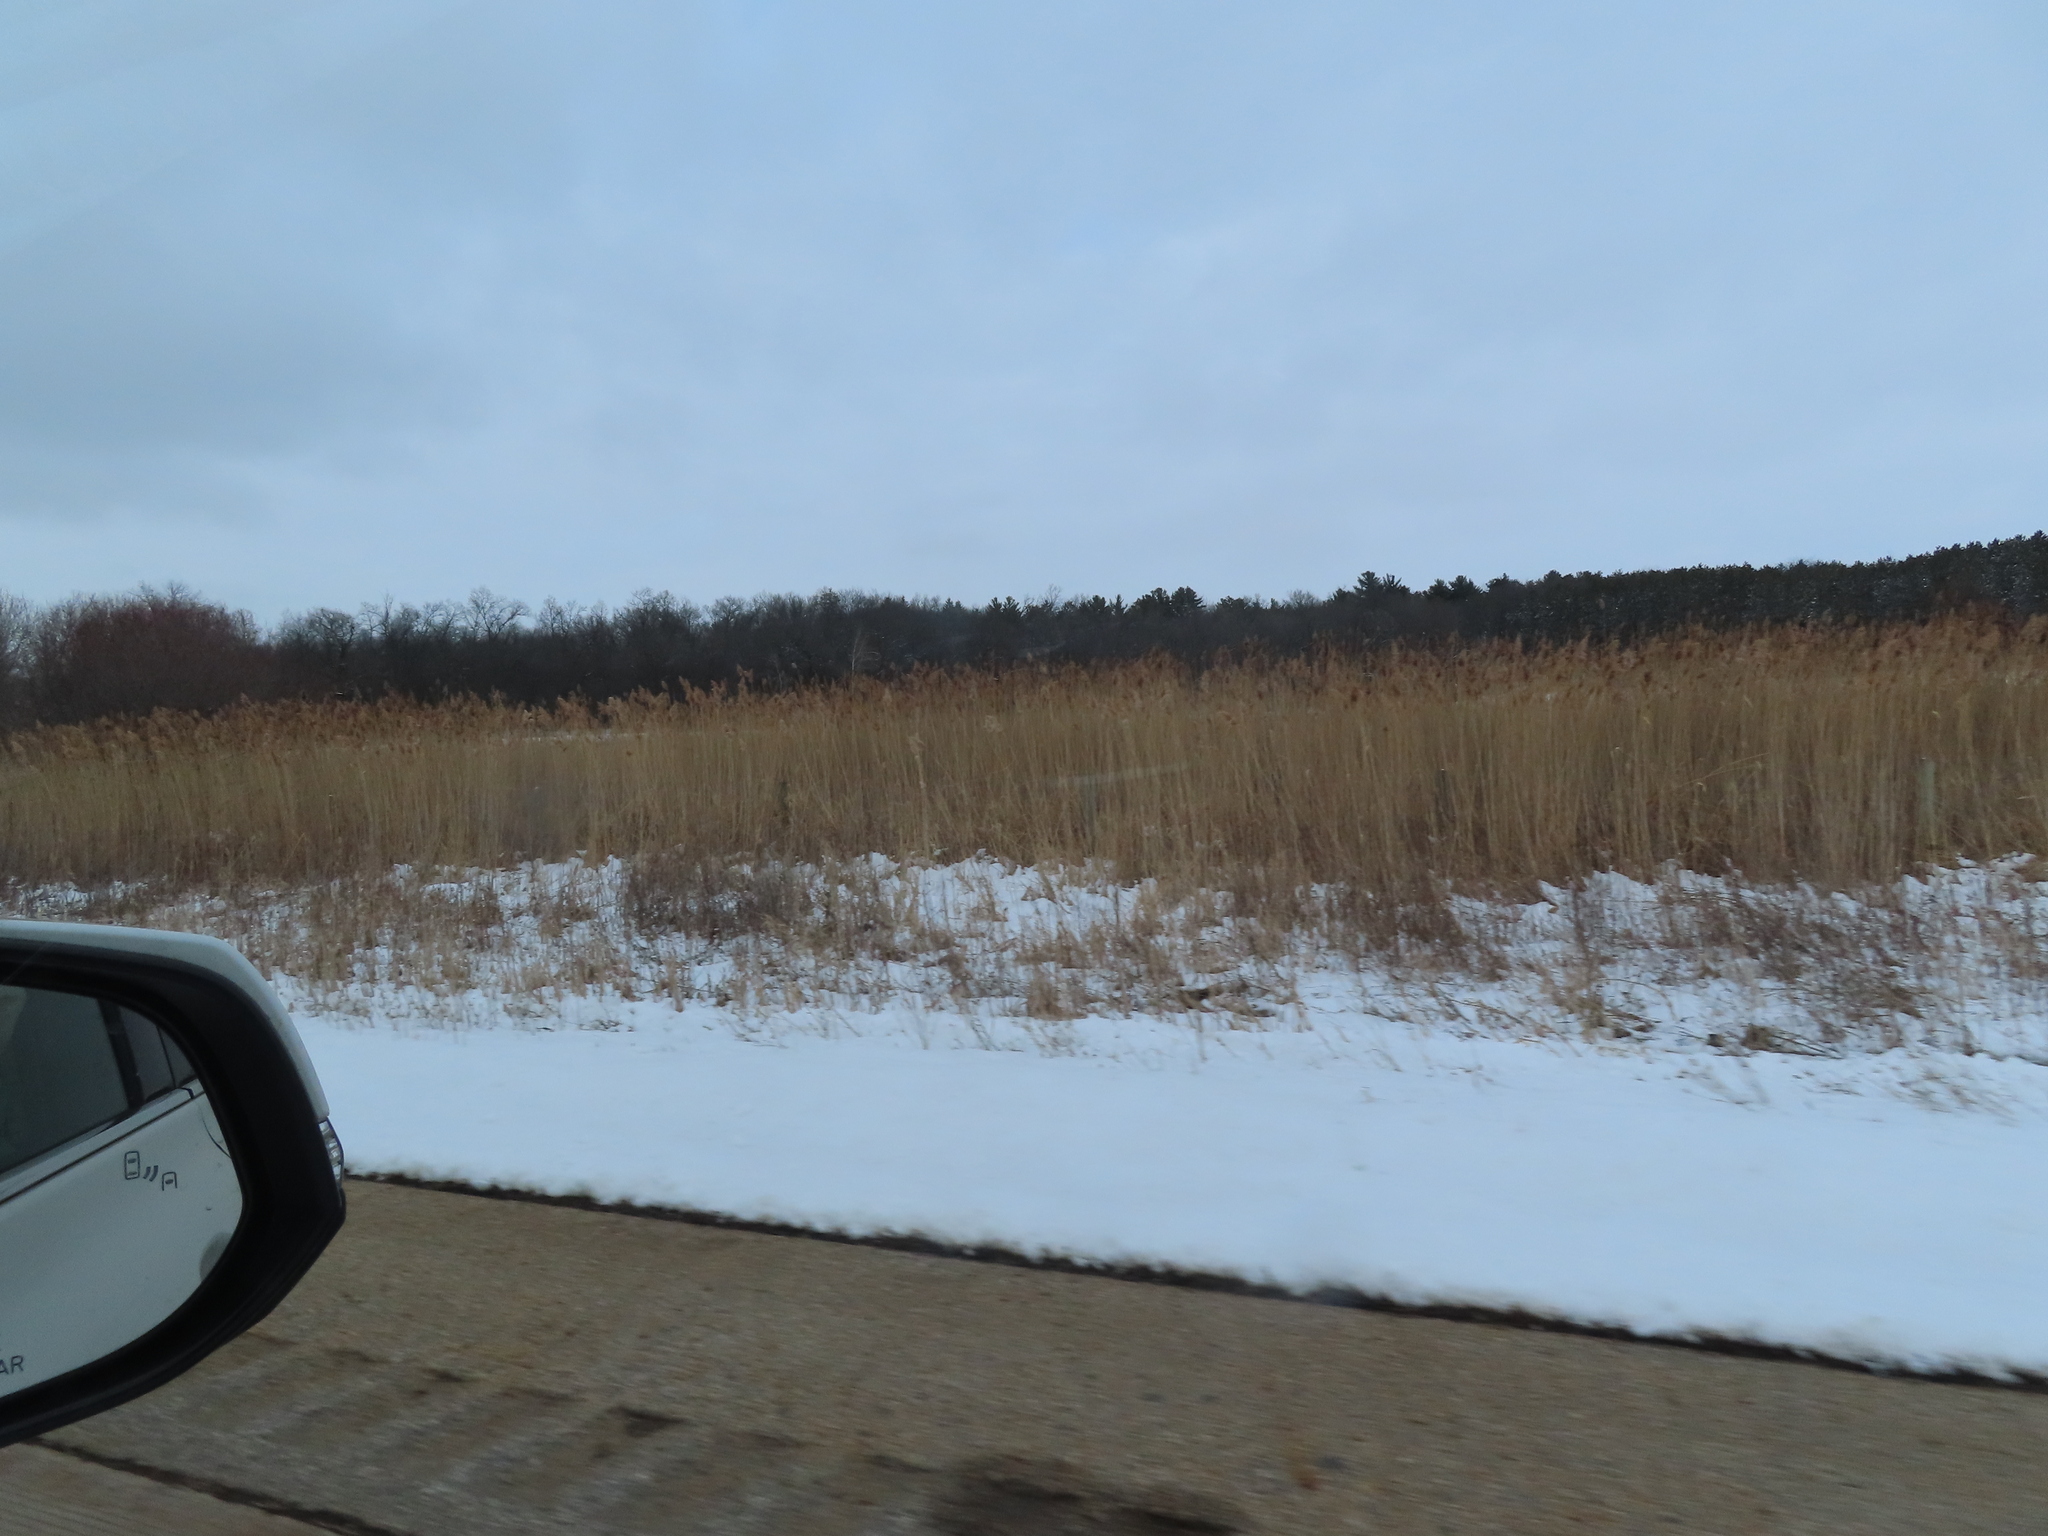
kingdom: Plantae
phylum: Tracheophyta
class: Liliopsida
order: Poales
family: Poaceae
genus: Phragmites
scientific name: Phragmites australis
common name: Common reed
